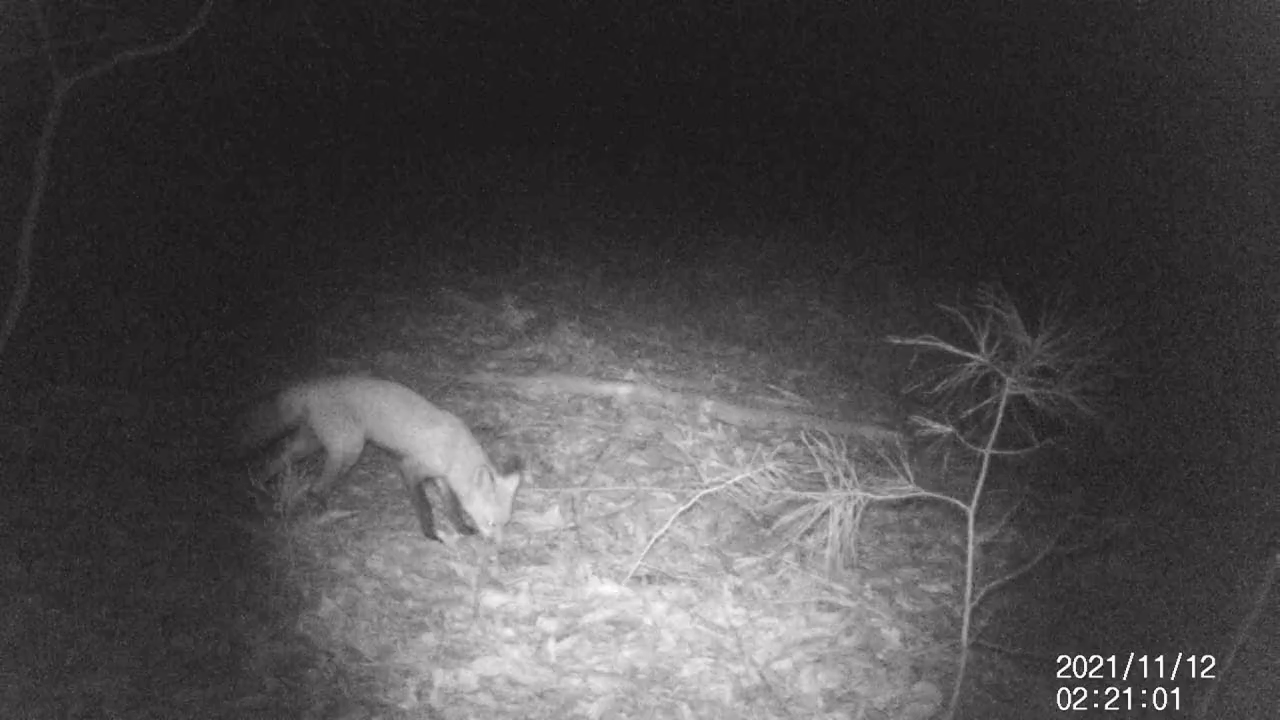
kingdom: Animalia
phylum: Chordata
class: Mammalia
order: Carnivora
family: Canidae
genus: Vulpes
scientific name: Vulpes vulpes
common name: Red fox
